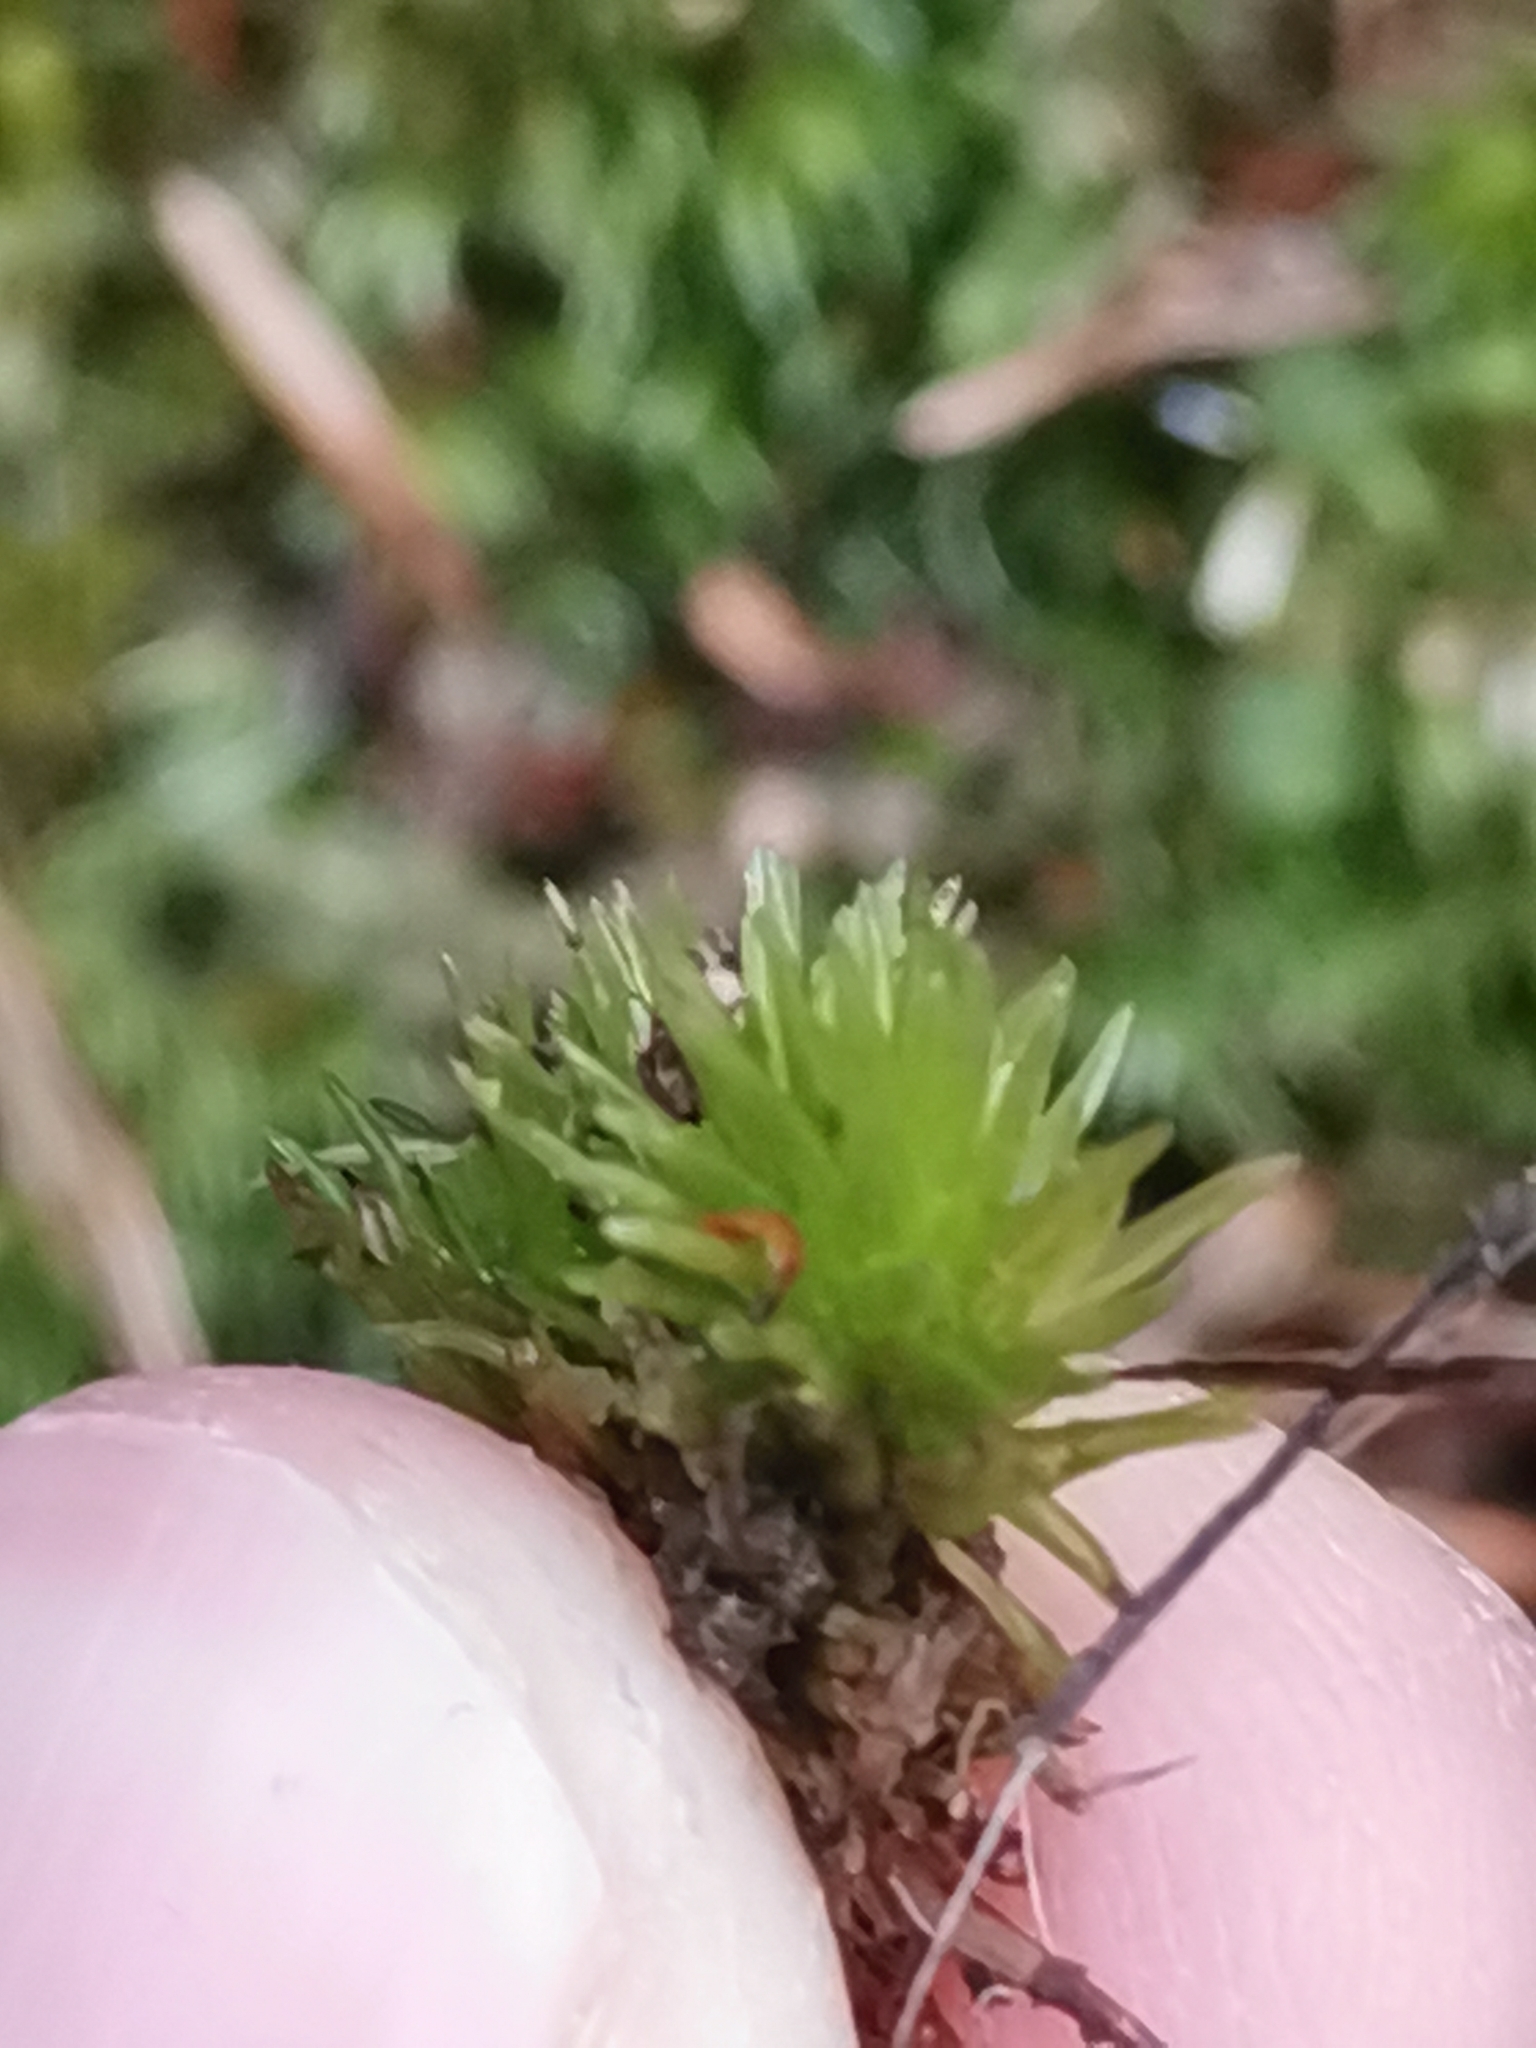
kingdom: Plantae
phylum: Bryophyta
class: Bryopsida
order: Dicranales
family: Leucobryaceae
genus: Leucobryum
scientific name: Leucobryum glaucum
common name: Large white-moss
